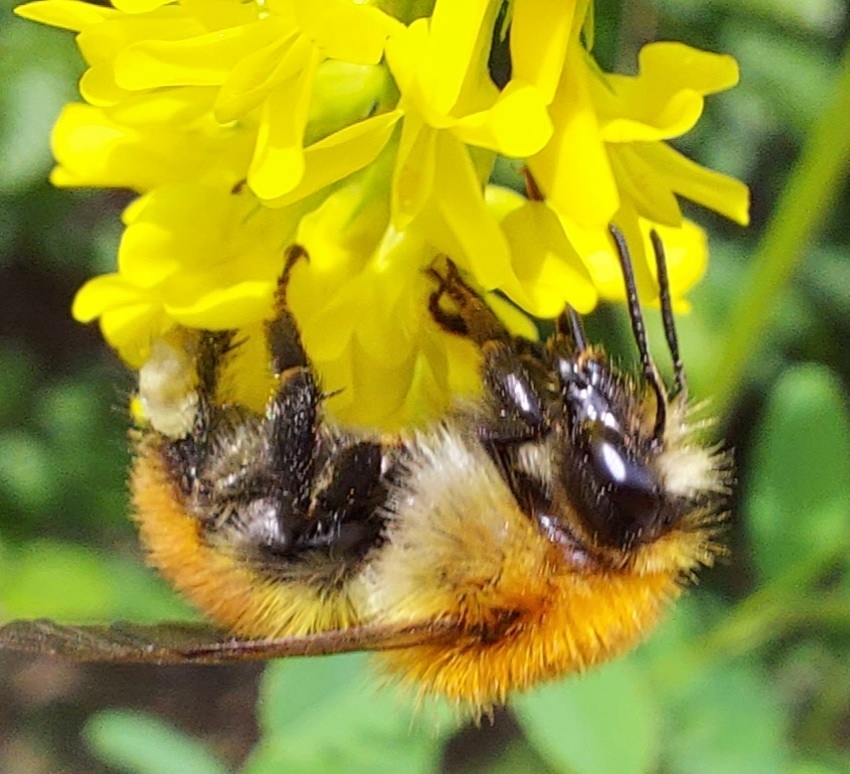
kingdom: Animalia
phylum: Arthropoda
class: Insecta
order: Hymenoptera
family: Apidae
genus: Bombus
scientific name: Bombus pascuorum
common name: Common carder bee
